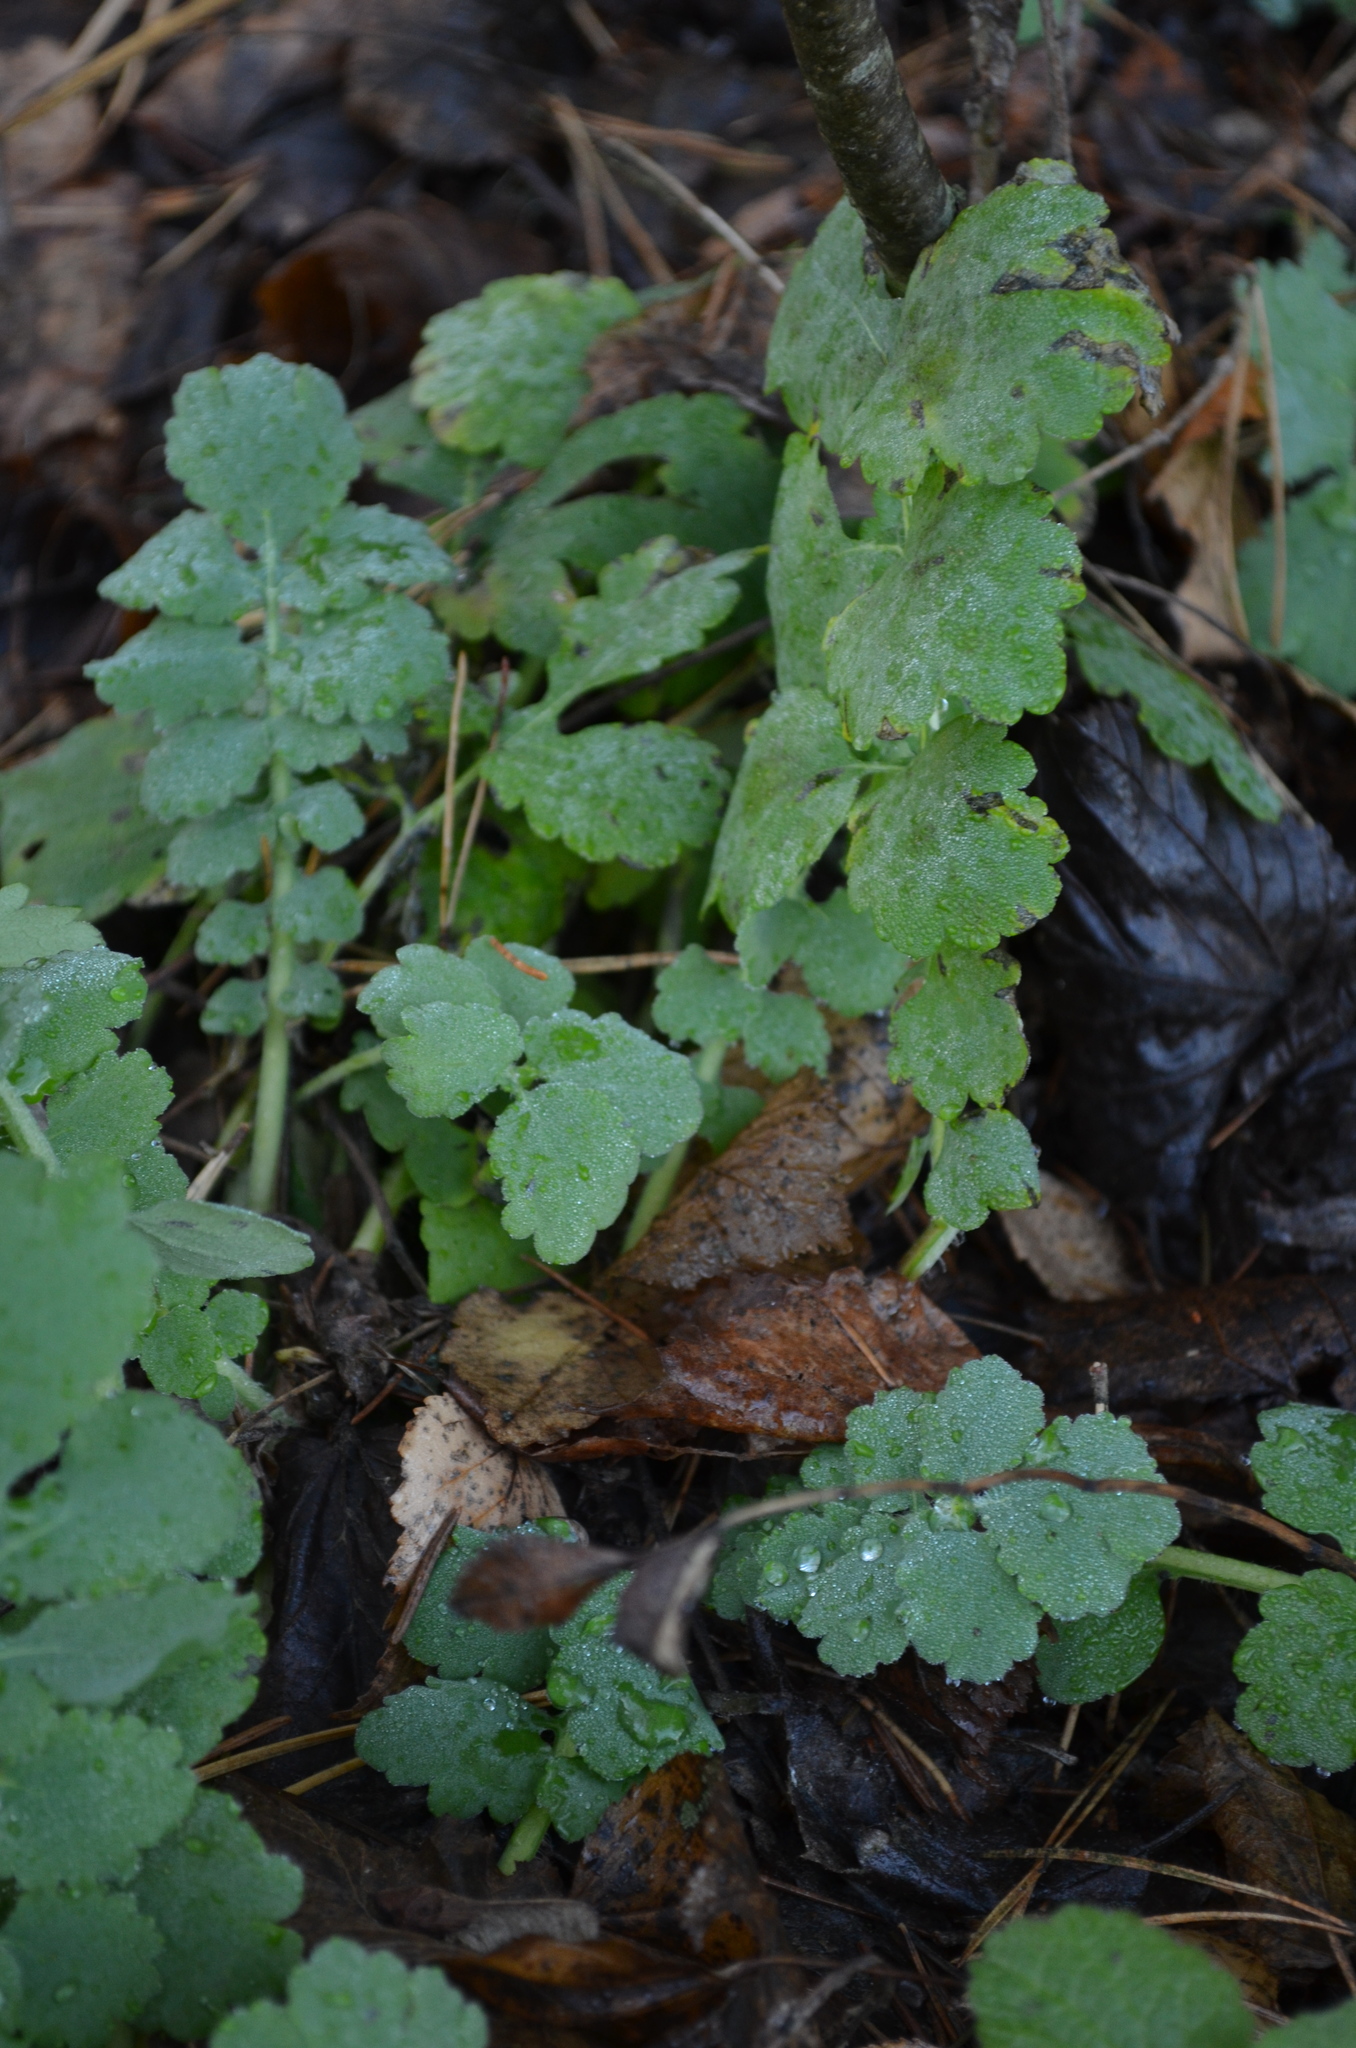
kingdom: Plantae
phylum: Tracheophyta
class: Magnoliopsida
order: Ranunculales
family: Papaveraceae
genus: Chelidonium
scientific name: Chelidonium majus
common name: Greater celandine
